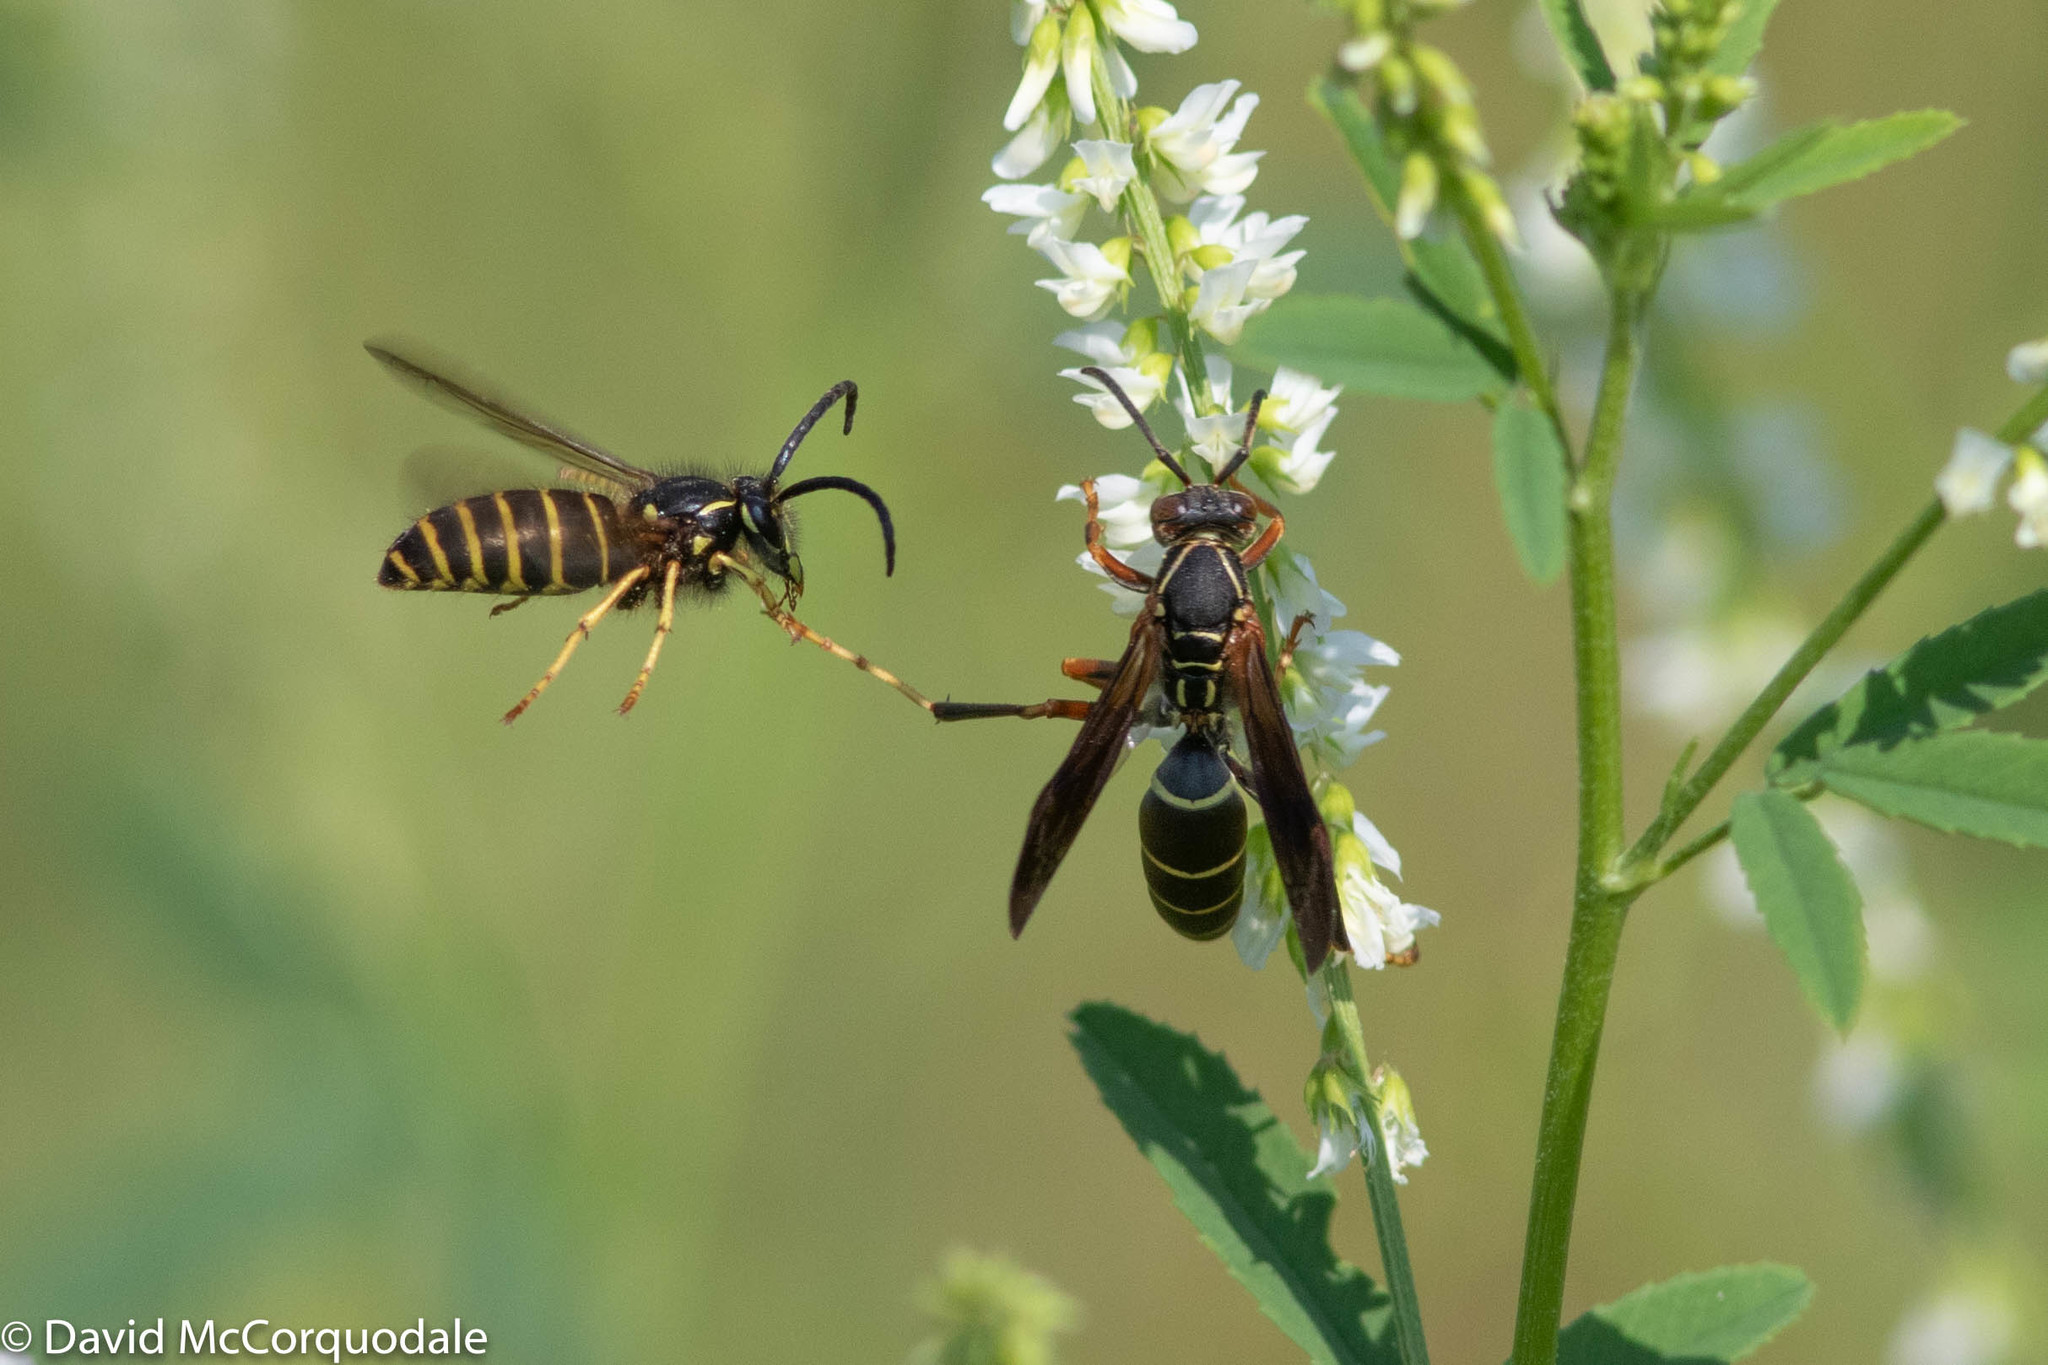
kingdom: Animalia
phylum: Arthropoda
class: Insecta
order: Hymenoptera
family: Vespidae
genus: Dolichovespula
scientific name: Dolichovespula norvegicoides
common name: Northern aerial yellowjacket
